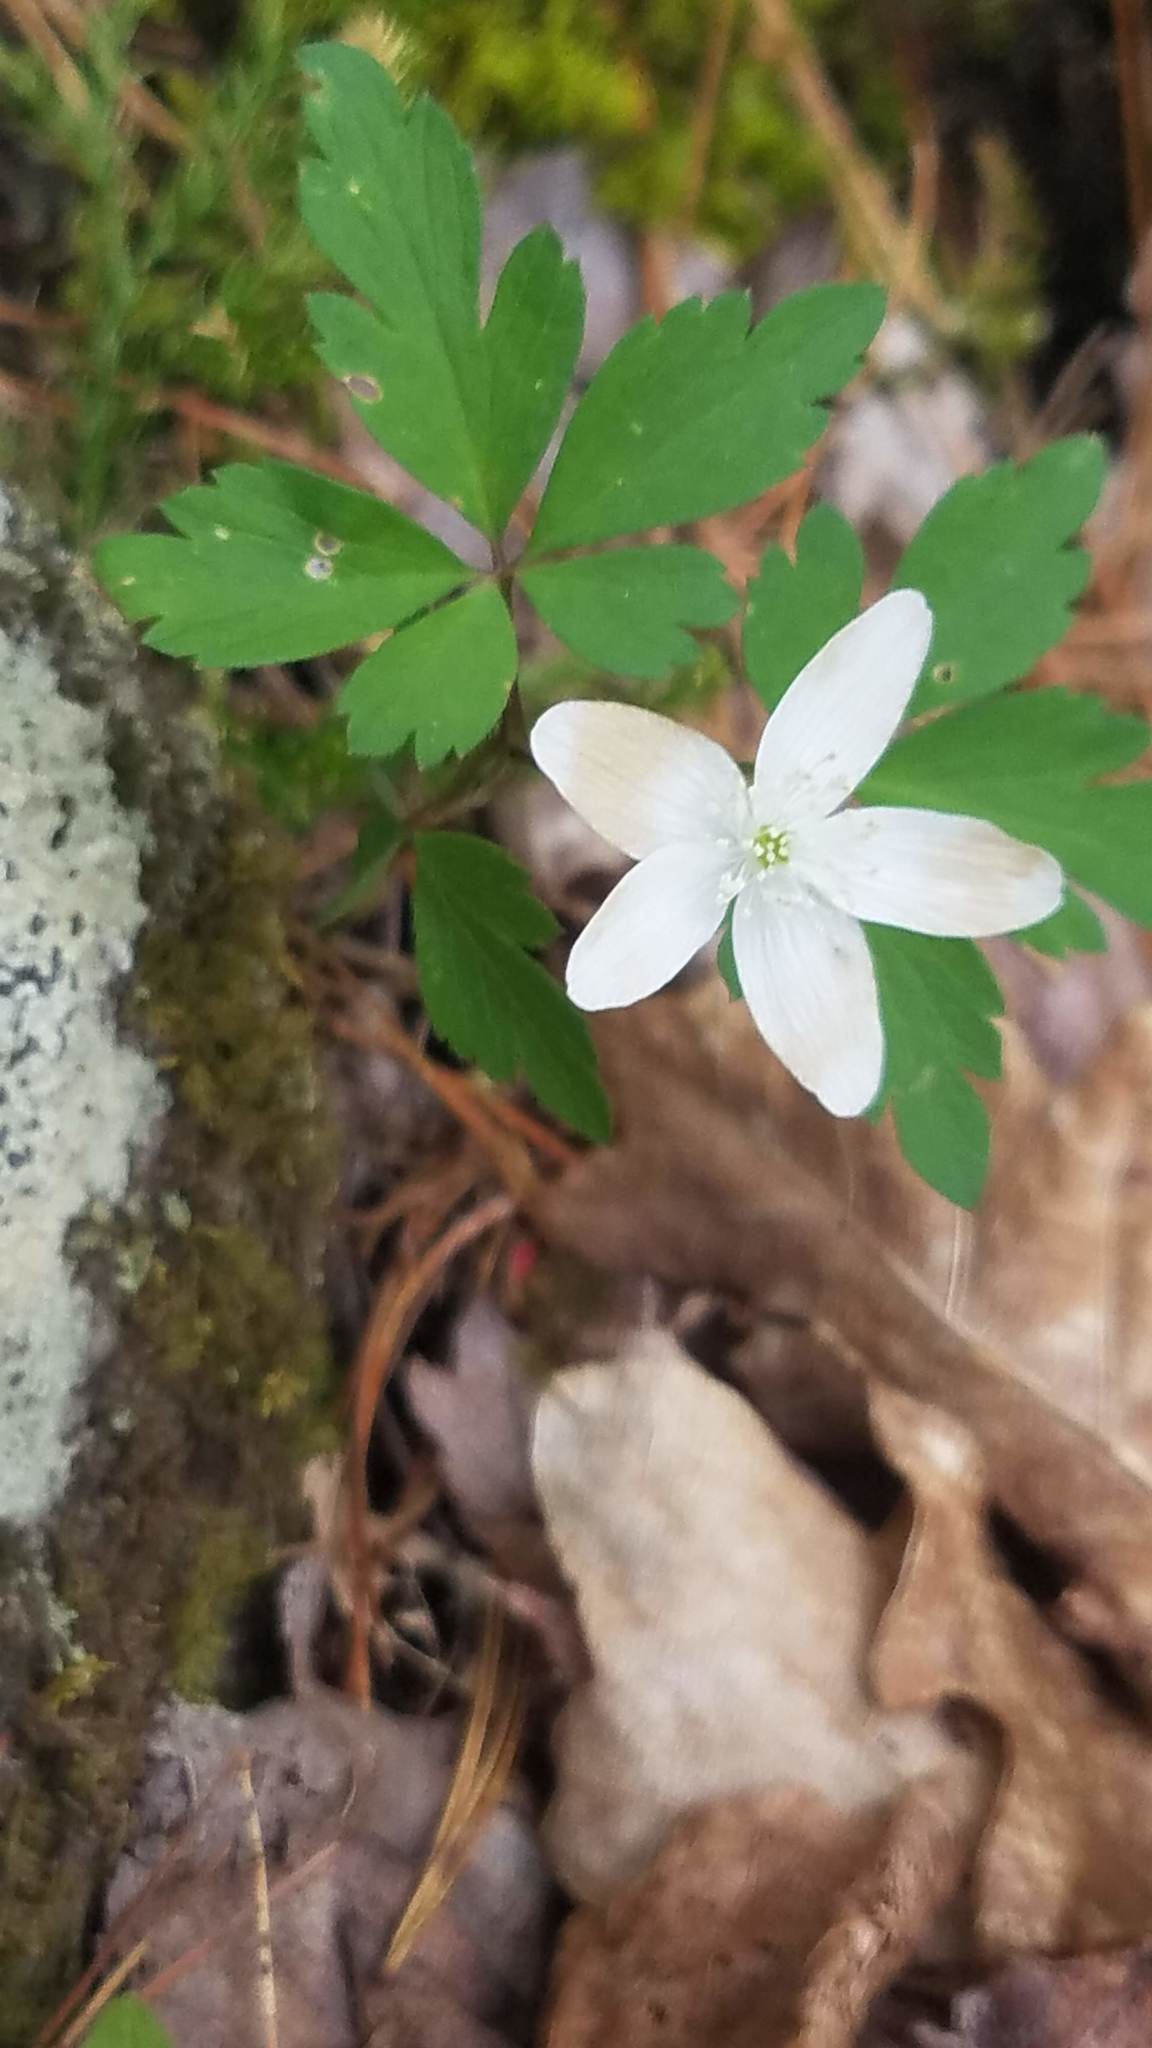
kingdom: Plantae
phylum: Tracheophyta
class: Magnoliopsida
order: Ranunculales
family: Ranunculaceae
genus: Anemone
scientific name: Anemone quinquefolia
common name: Wood anemone
